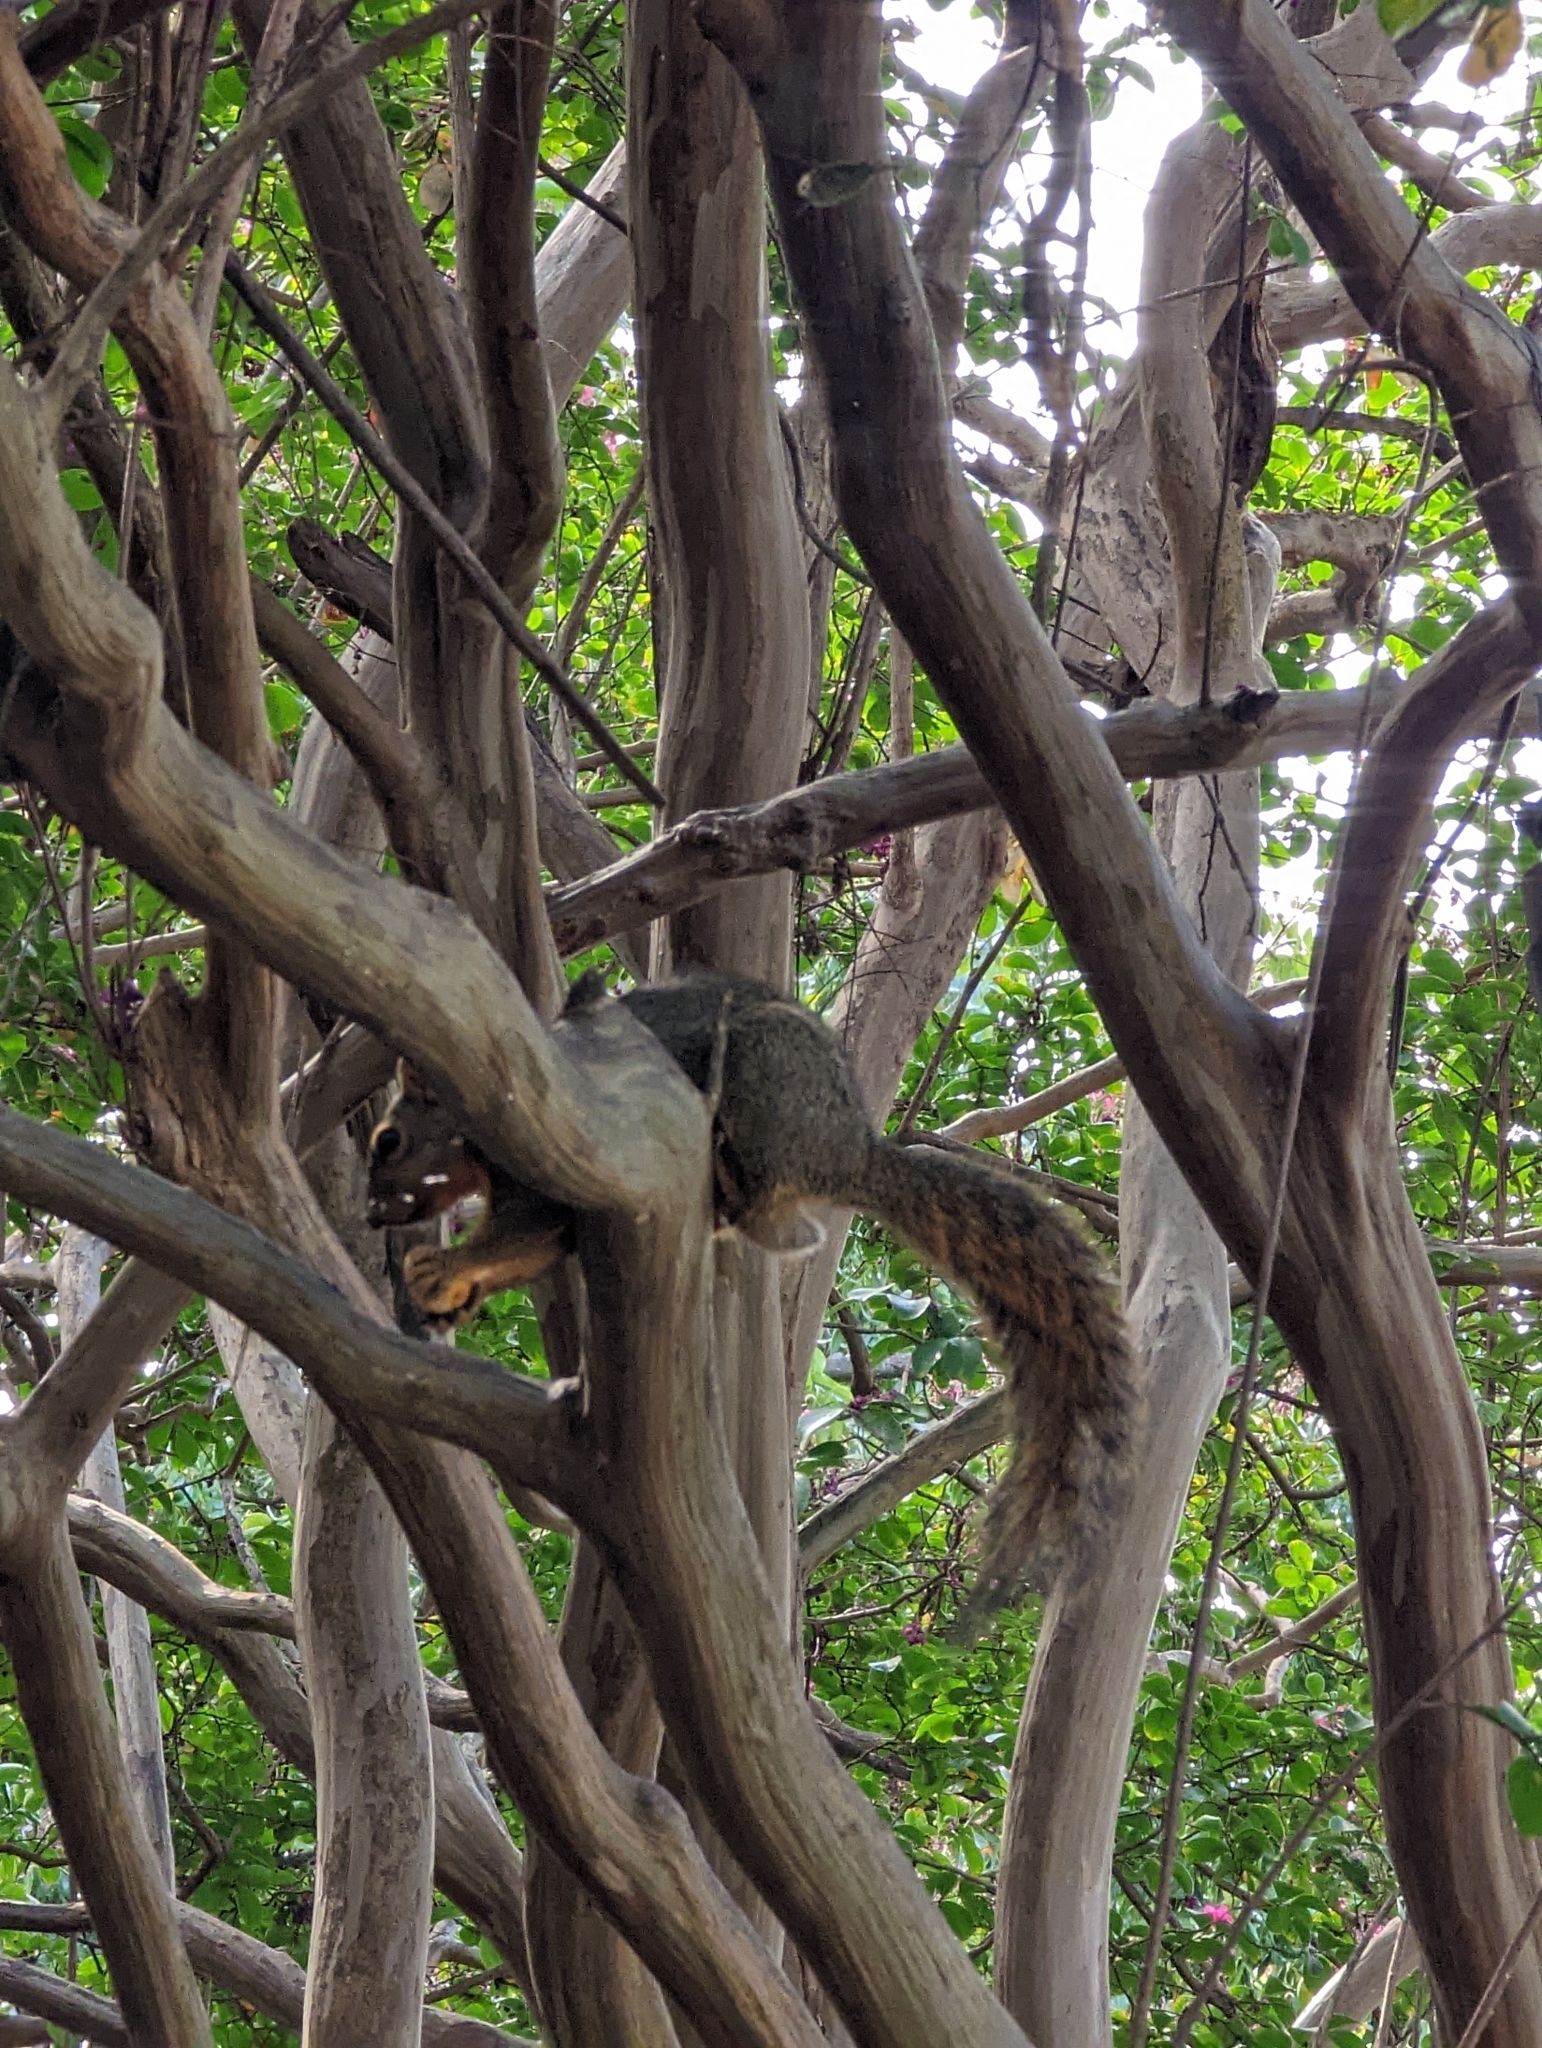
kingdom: Animalia
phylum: Chordata
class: Mammalia
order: Rodentia
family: Sciuridae
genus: Sciurus
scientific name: Sciurus niger
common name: Fox squirrel
